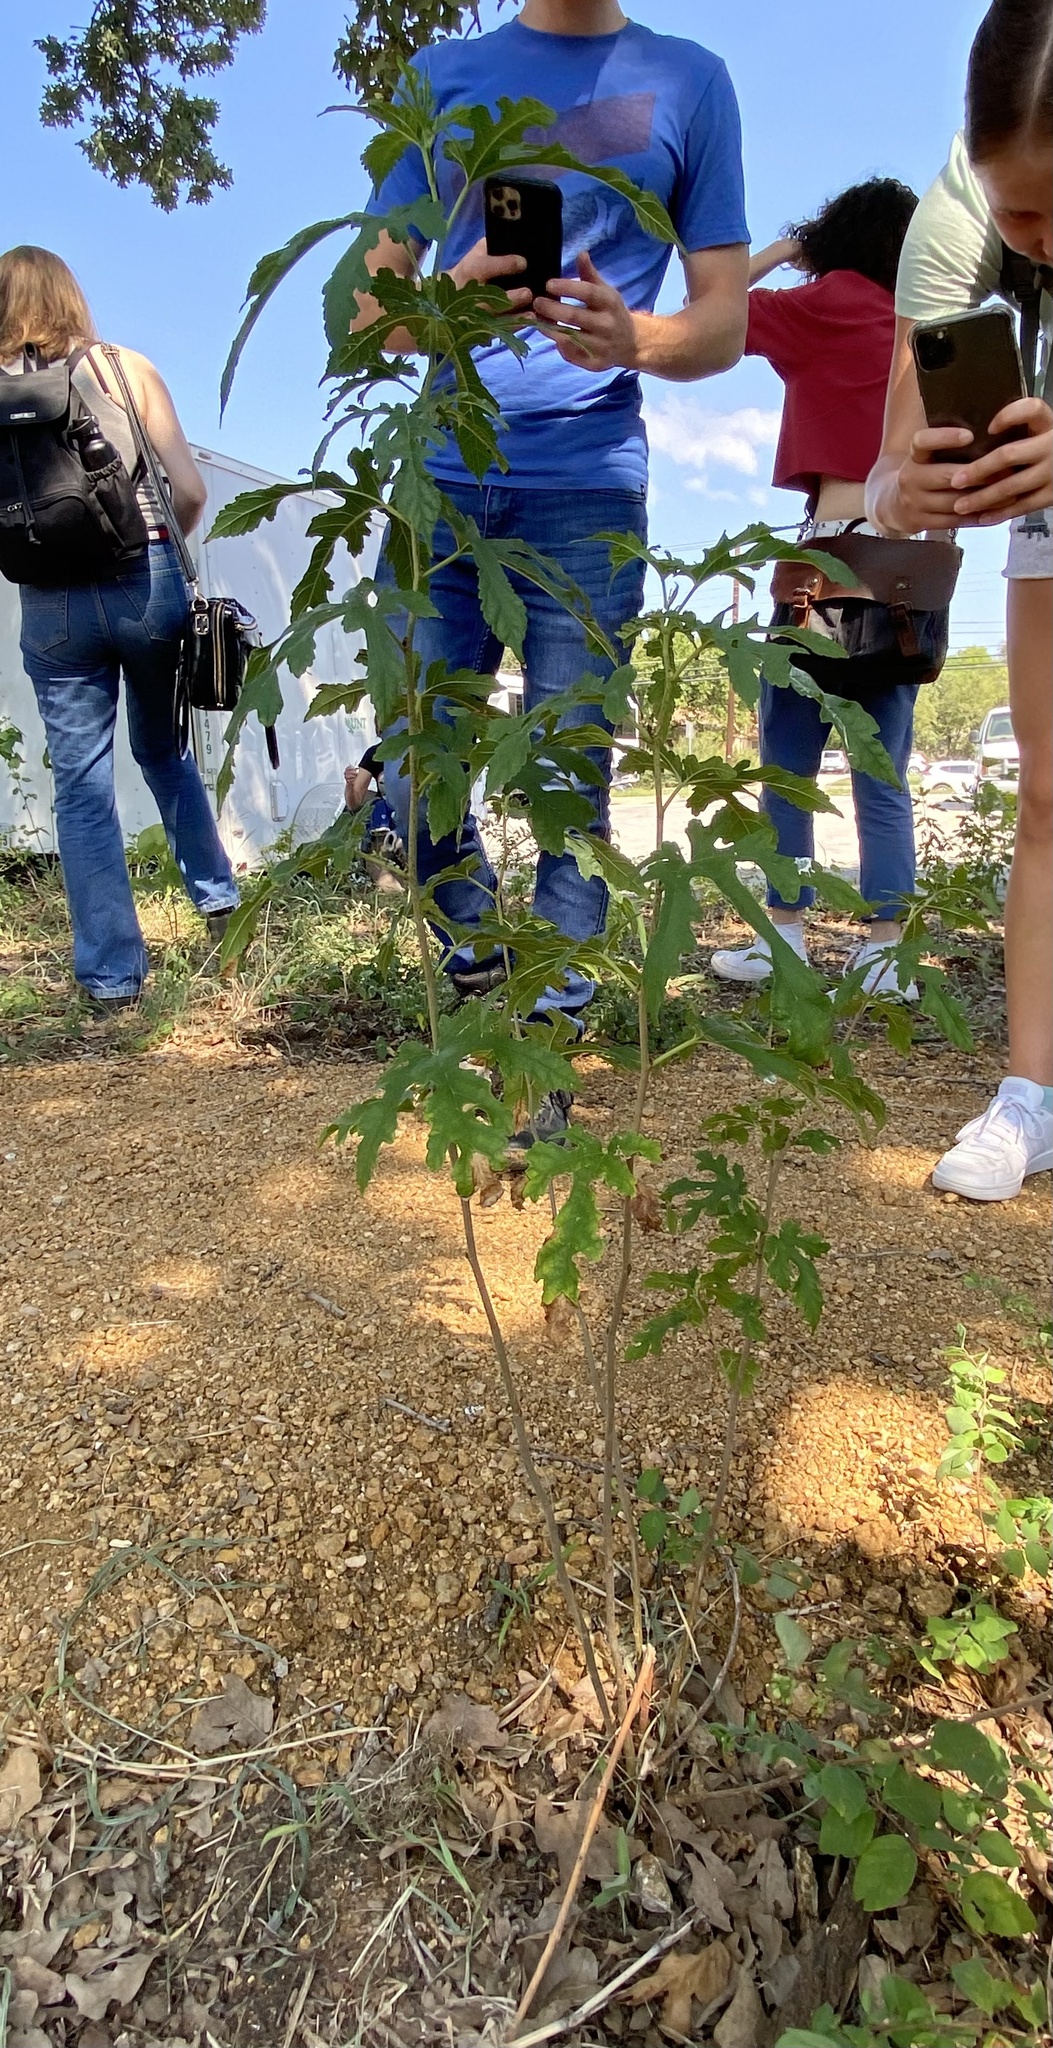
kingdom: Plantae
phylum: Tracheophyta
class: Magnoliopsida
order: Rosales
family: Moraceae
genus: Morus
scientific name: Morus indica
